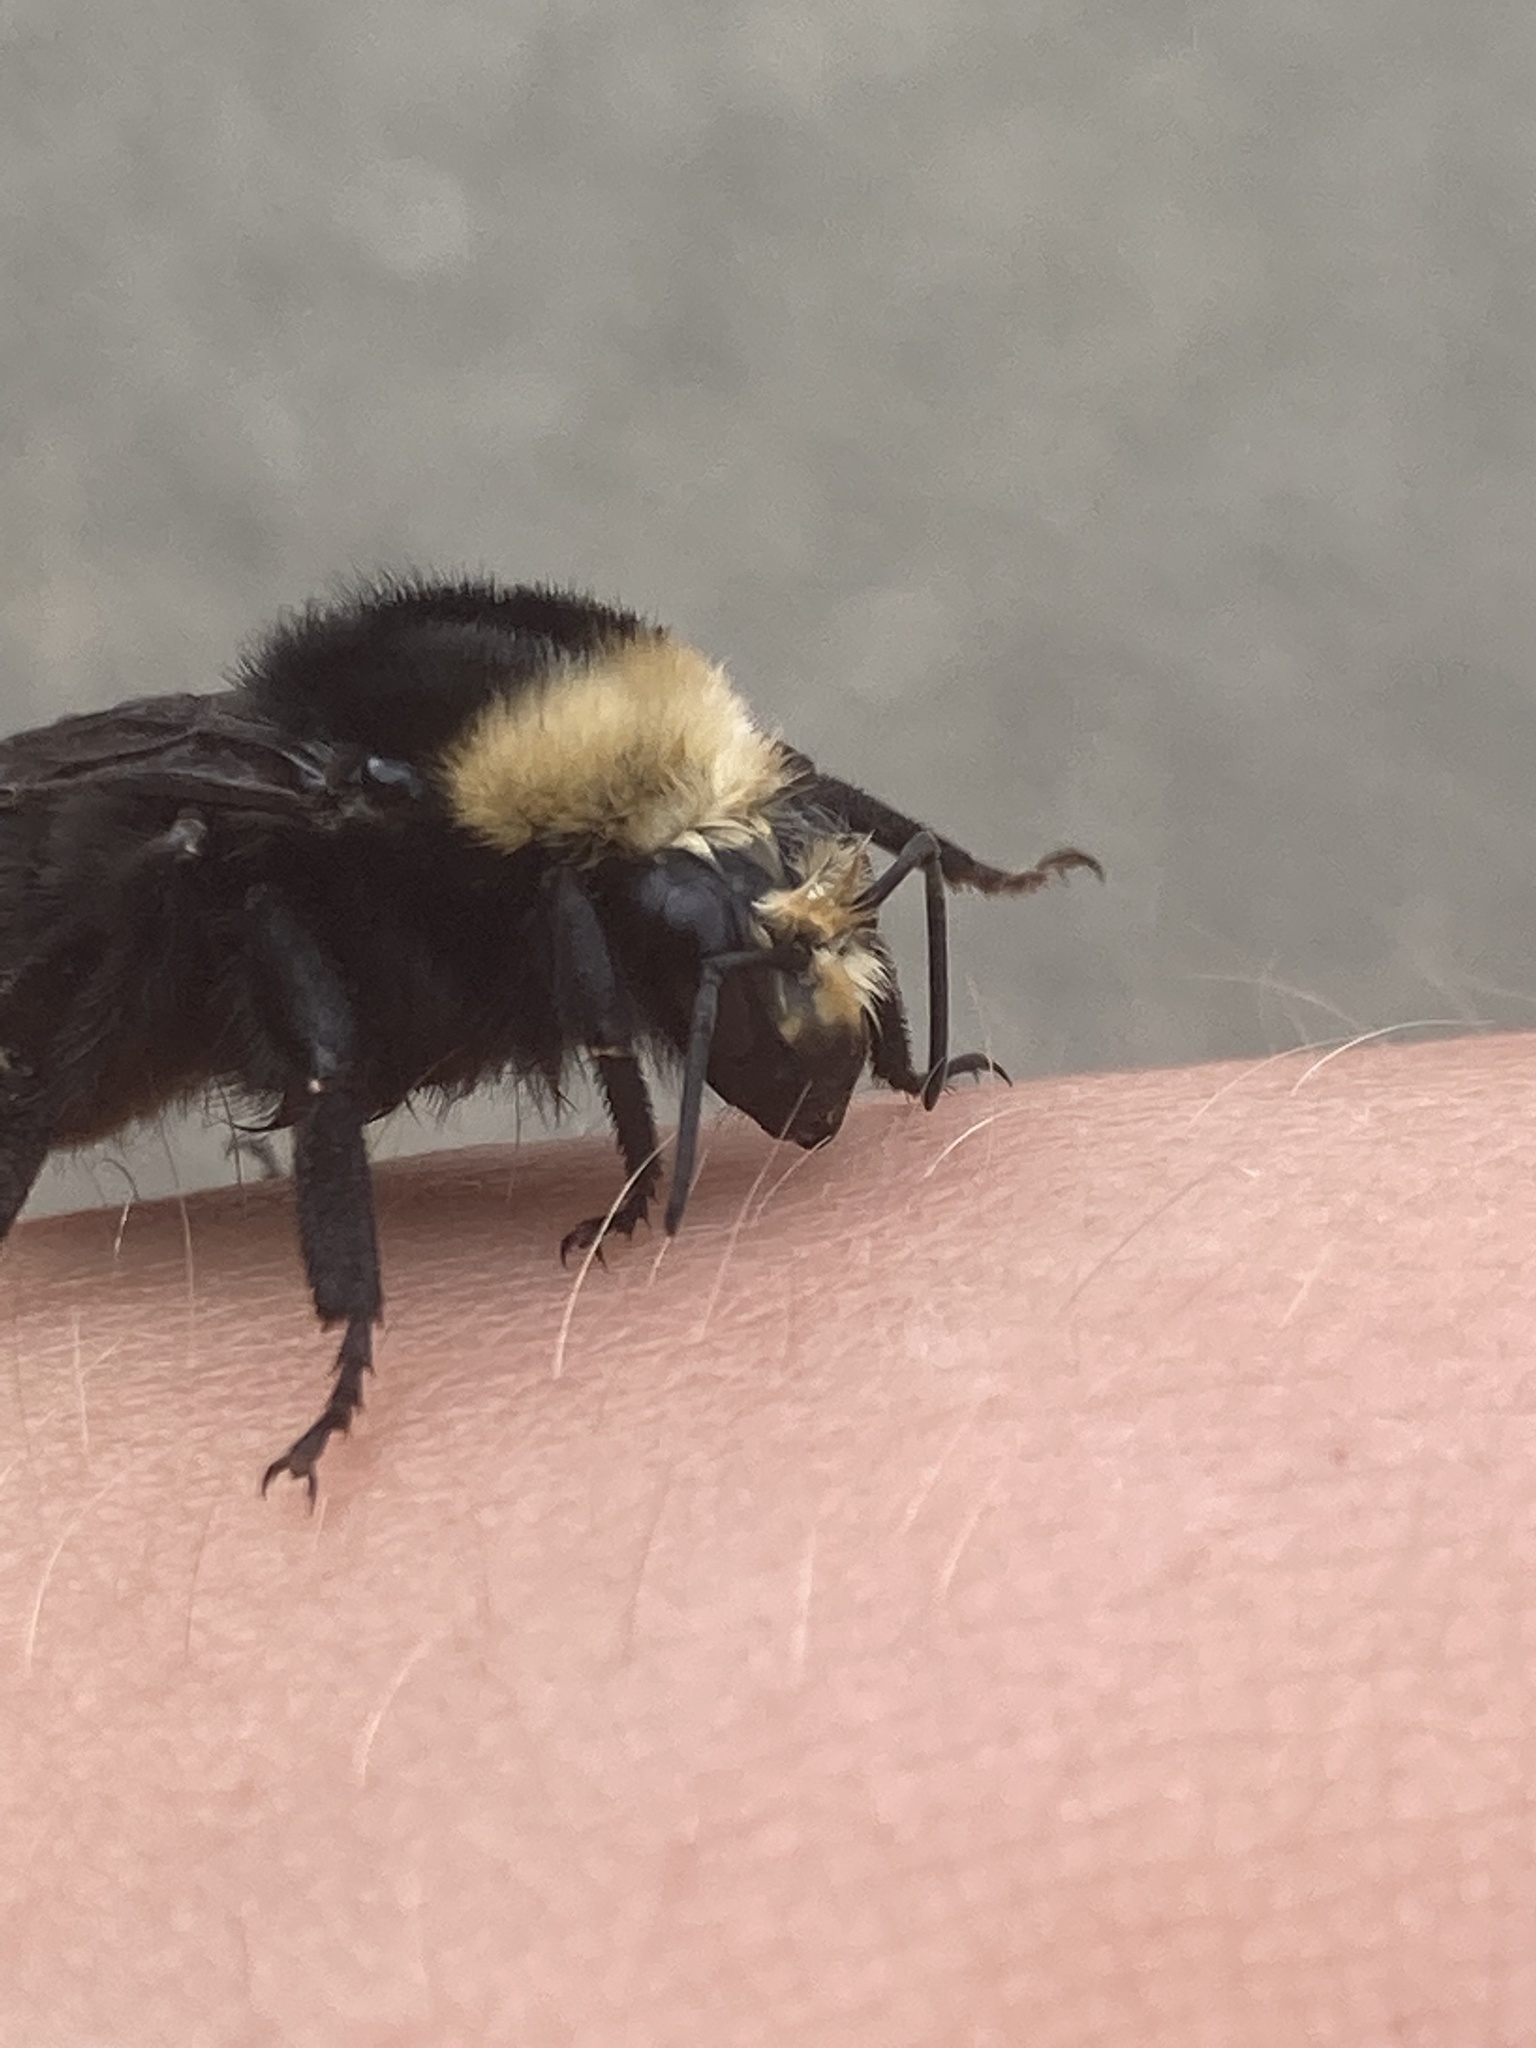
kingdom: Animalia
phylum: Arthropoda
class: Insecta
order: Hymenoptera
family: Apidae
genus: Bombus
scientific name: Bombus vosnesenskii
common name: Vosnesensky bumble bee
